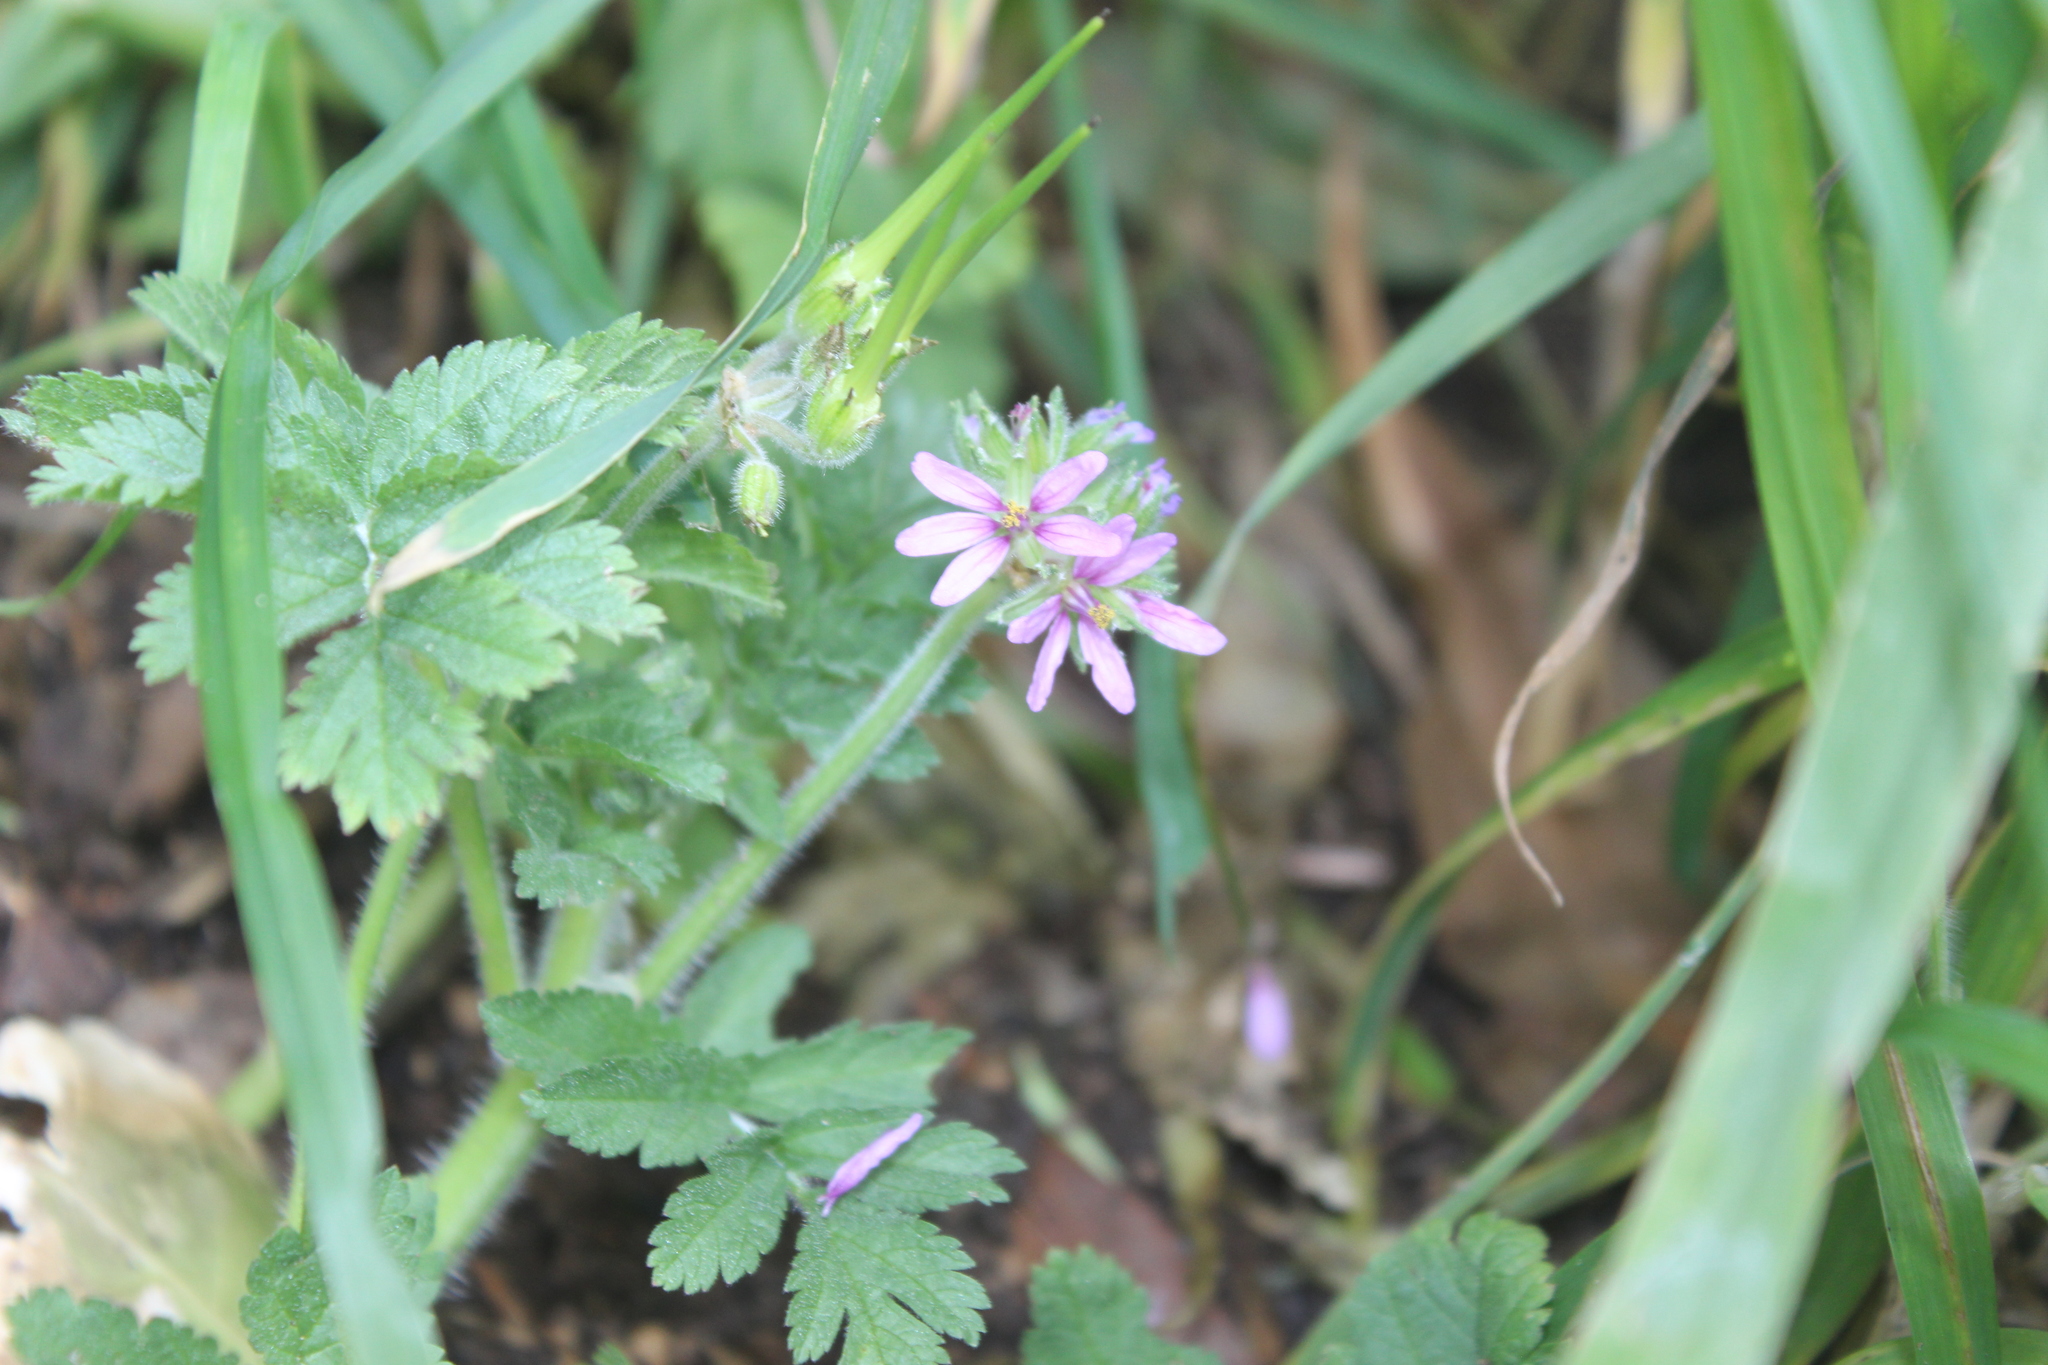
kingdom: Plantae
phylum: Tracheophyta
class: Magnoliopsida
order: Geraniales
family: Geraniaceae
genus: Erodium
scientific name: Erodium moschatum
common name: Musk stork's-bill
